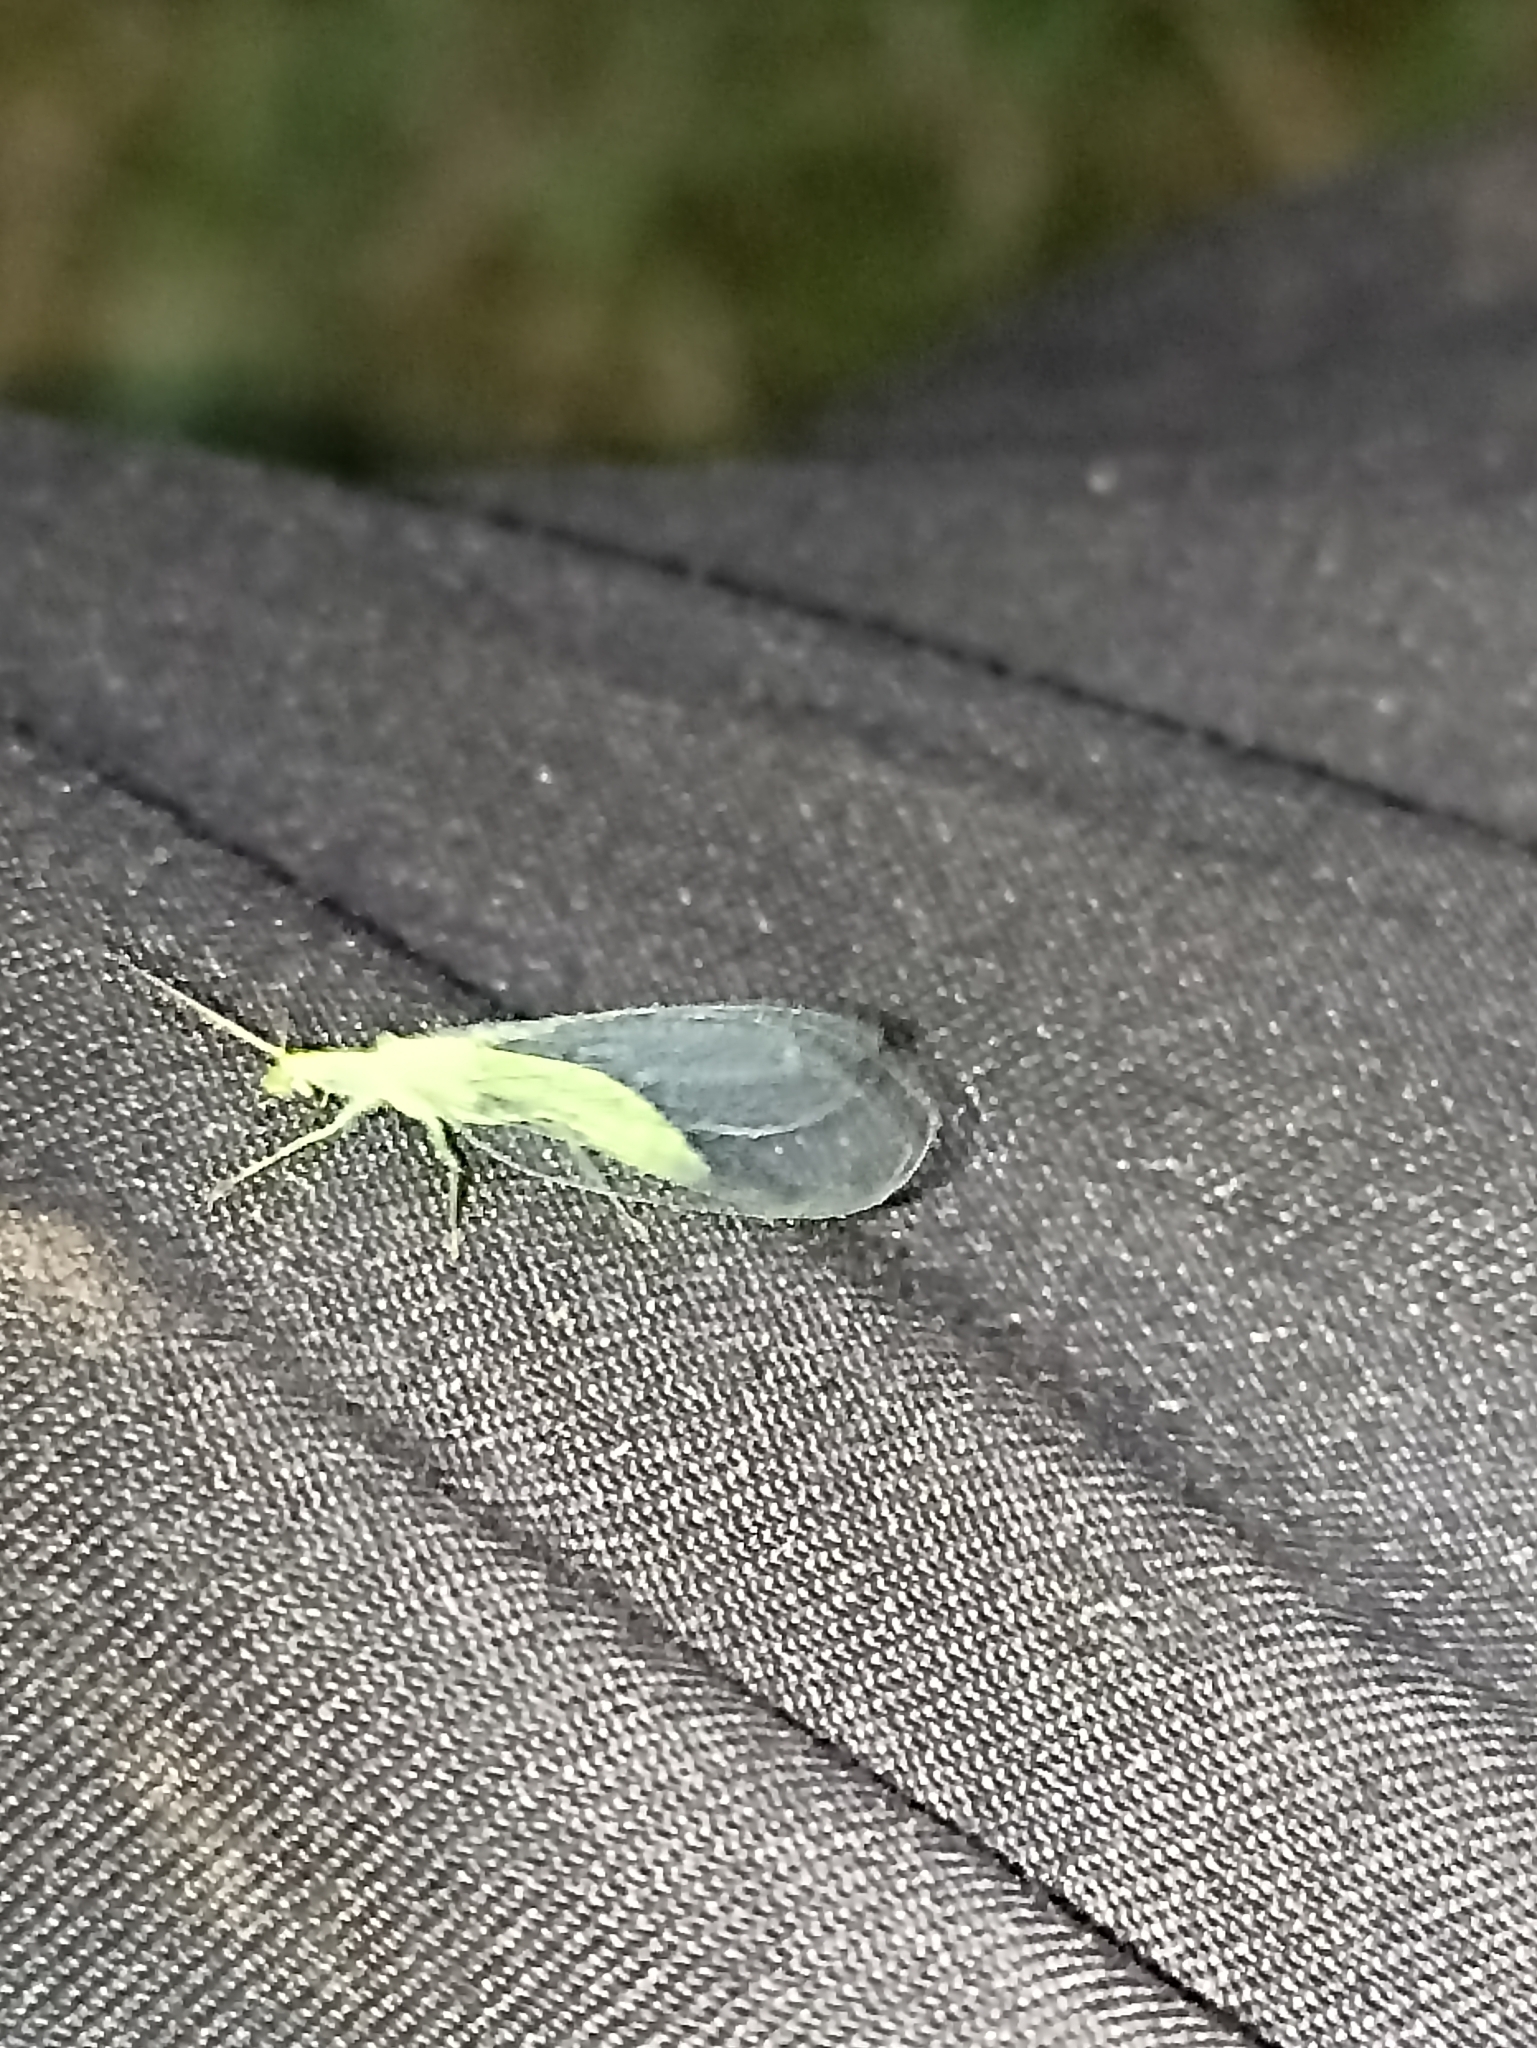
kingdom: Animalia
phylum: Arthropoda
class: Insecta
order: Neuroptera
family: Chrysopidae
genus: Mallada
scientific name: Mallada basalis
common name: Green lacewing
